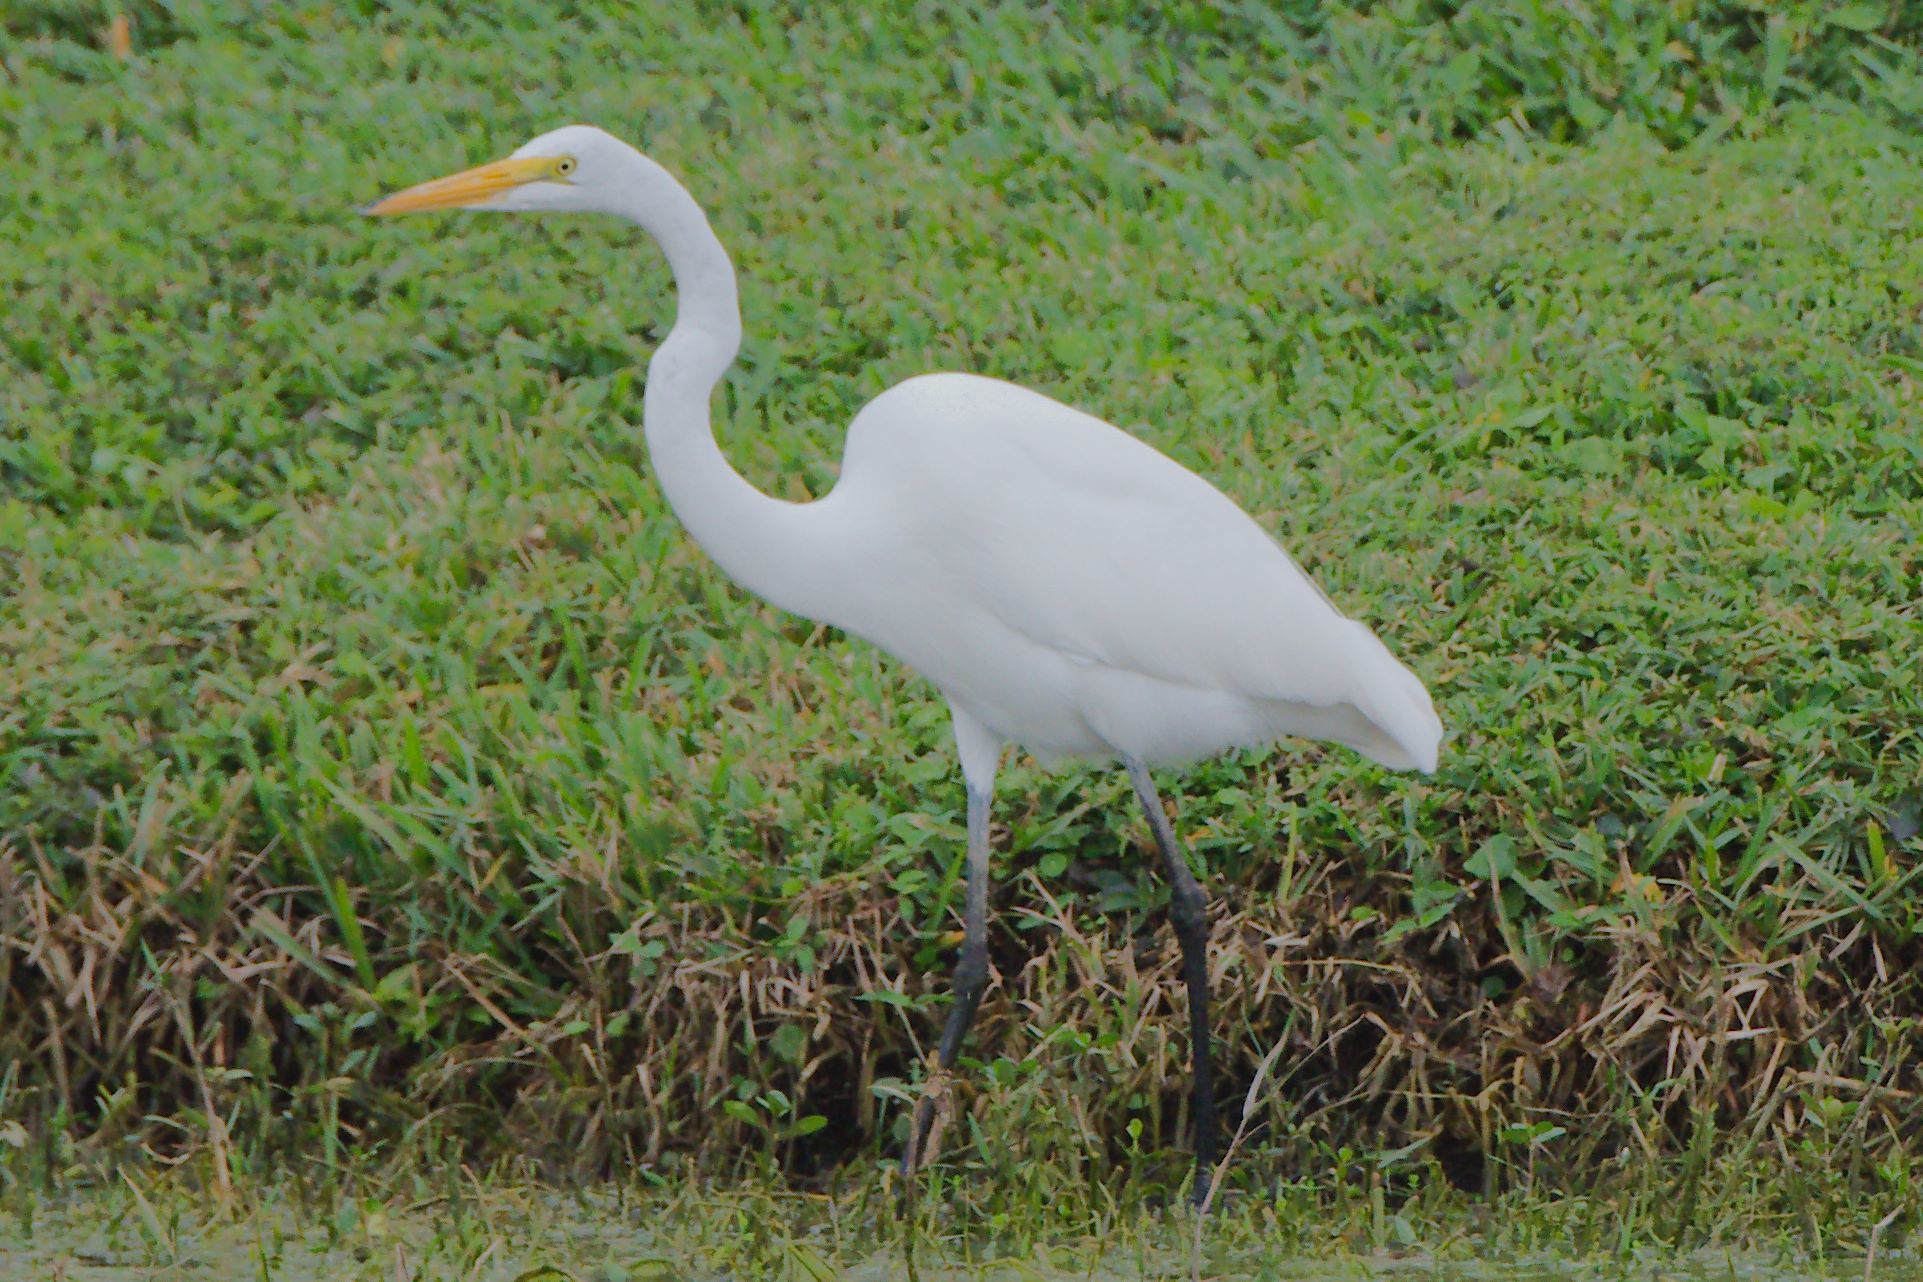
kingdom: Animalia
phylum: Chordata
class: Aves
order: Pelecaniformes
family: Ardeidae
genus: Ardea
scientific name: Ardea alba
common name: Great egret
